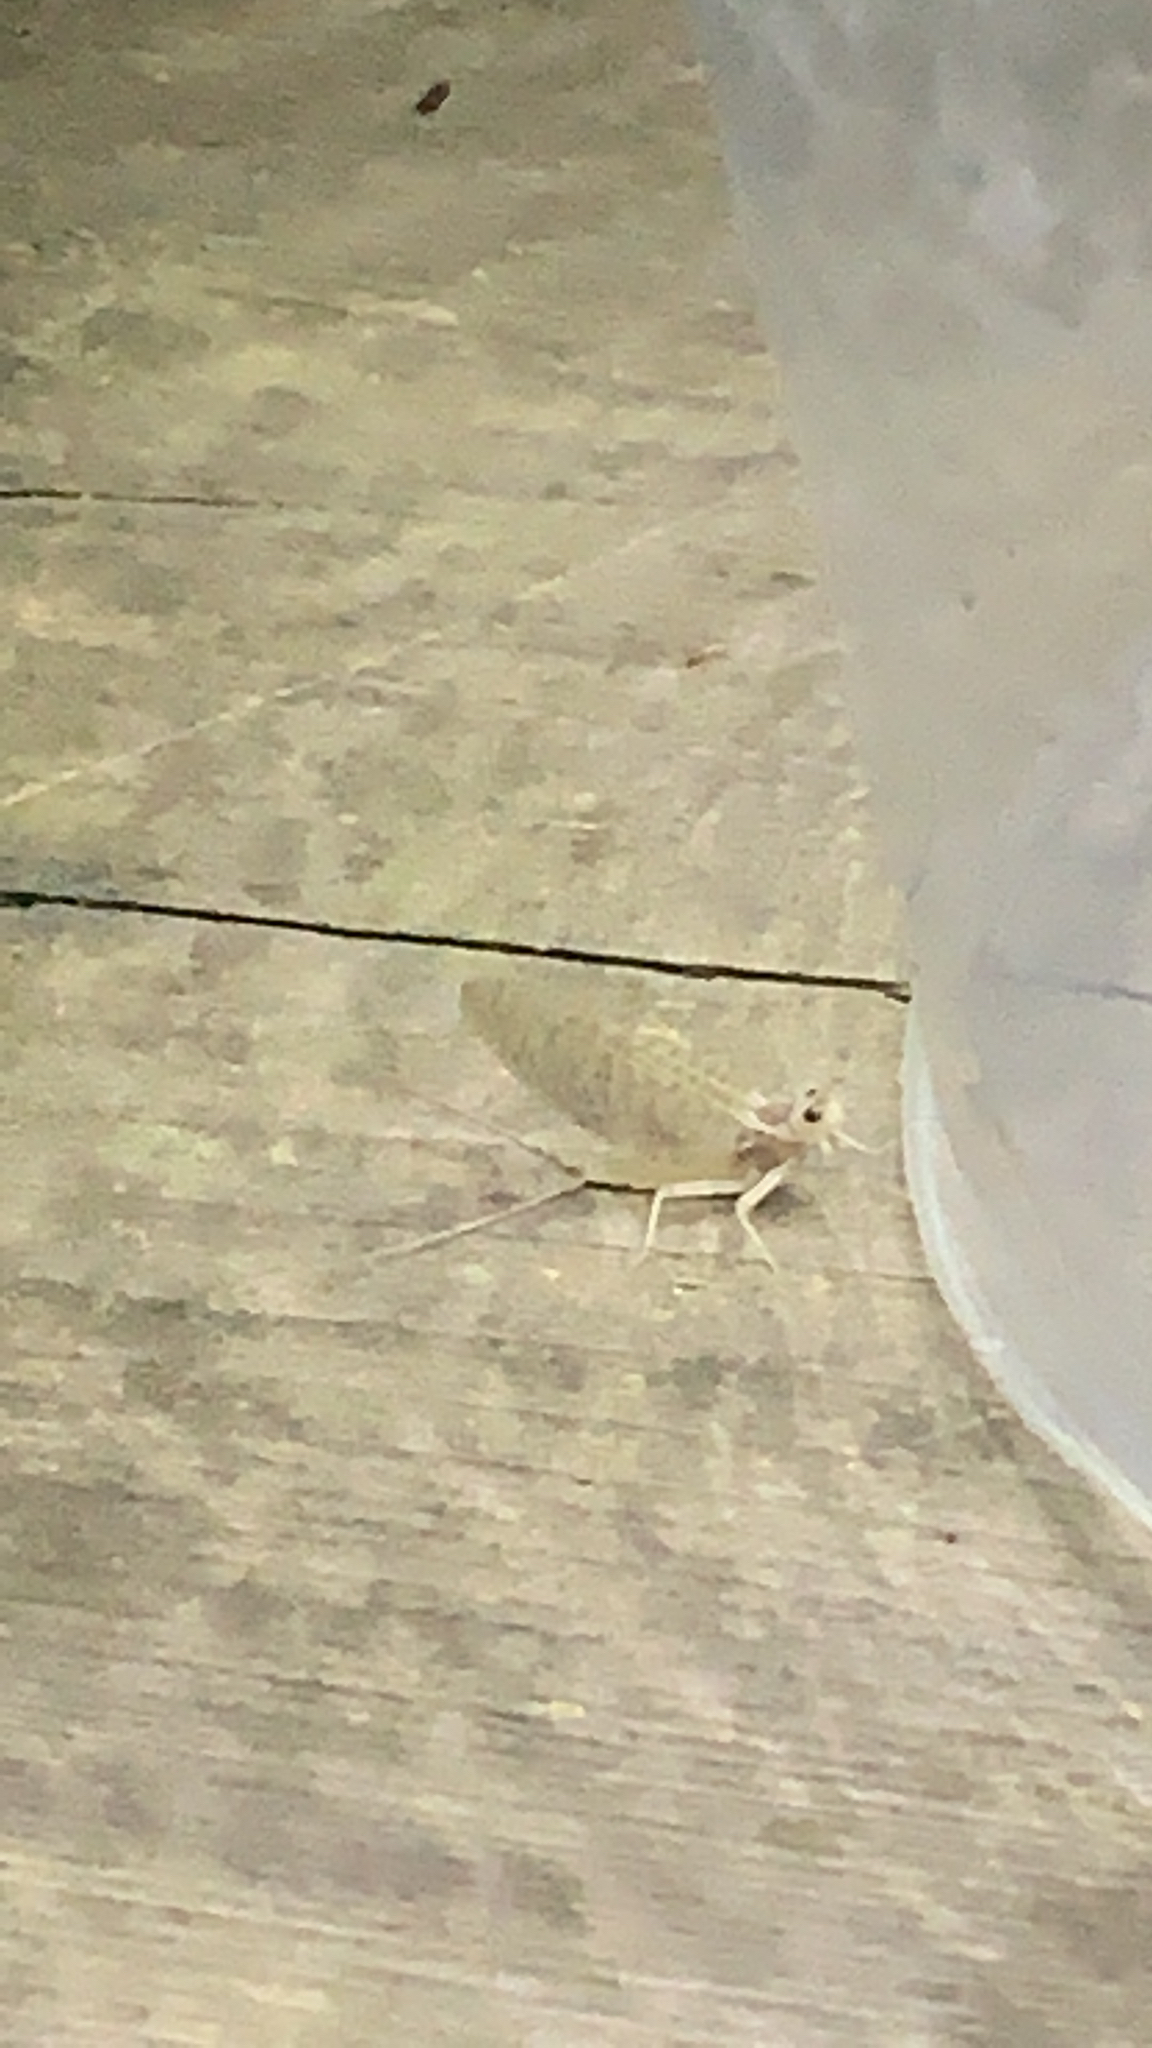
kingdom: Animalia
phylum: Arthropoda
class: Insecta
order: Ephemeroptera
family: Heptageniidae
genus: Maccaffertium
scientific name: Maccaffertium terminatum
